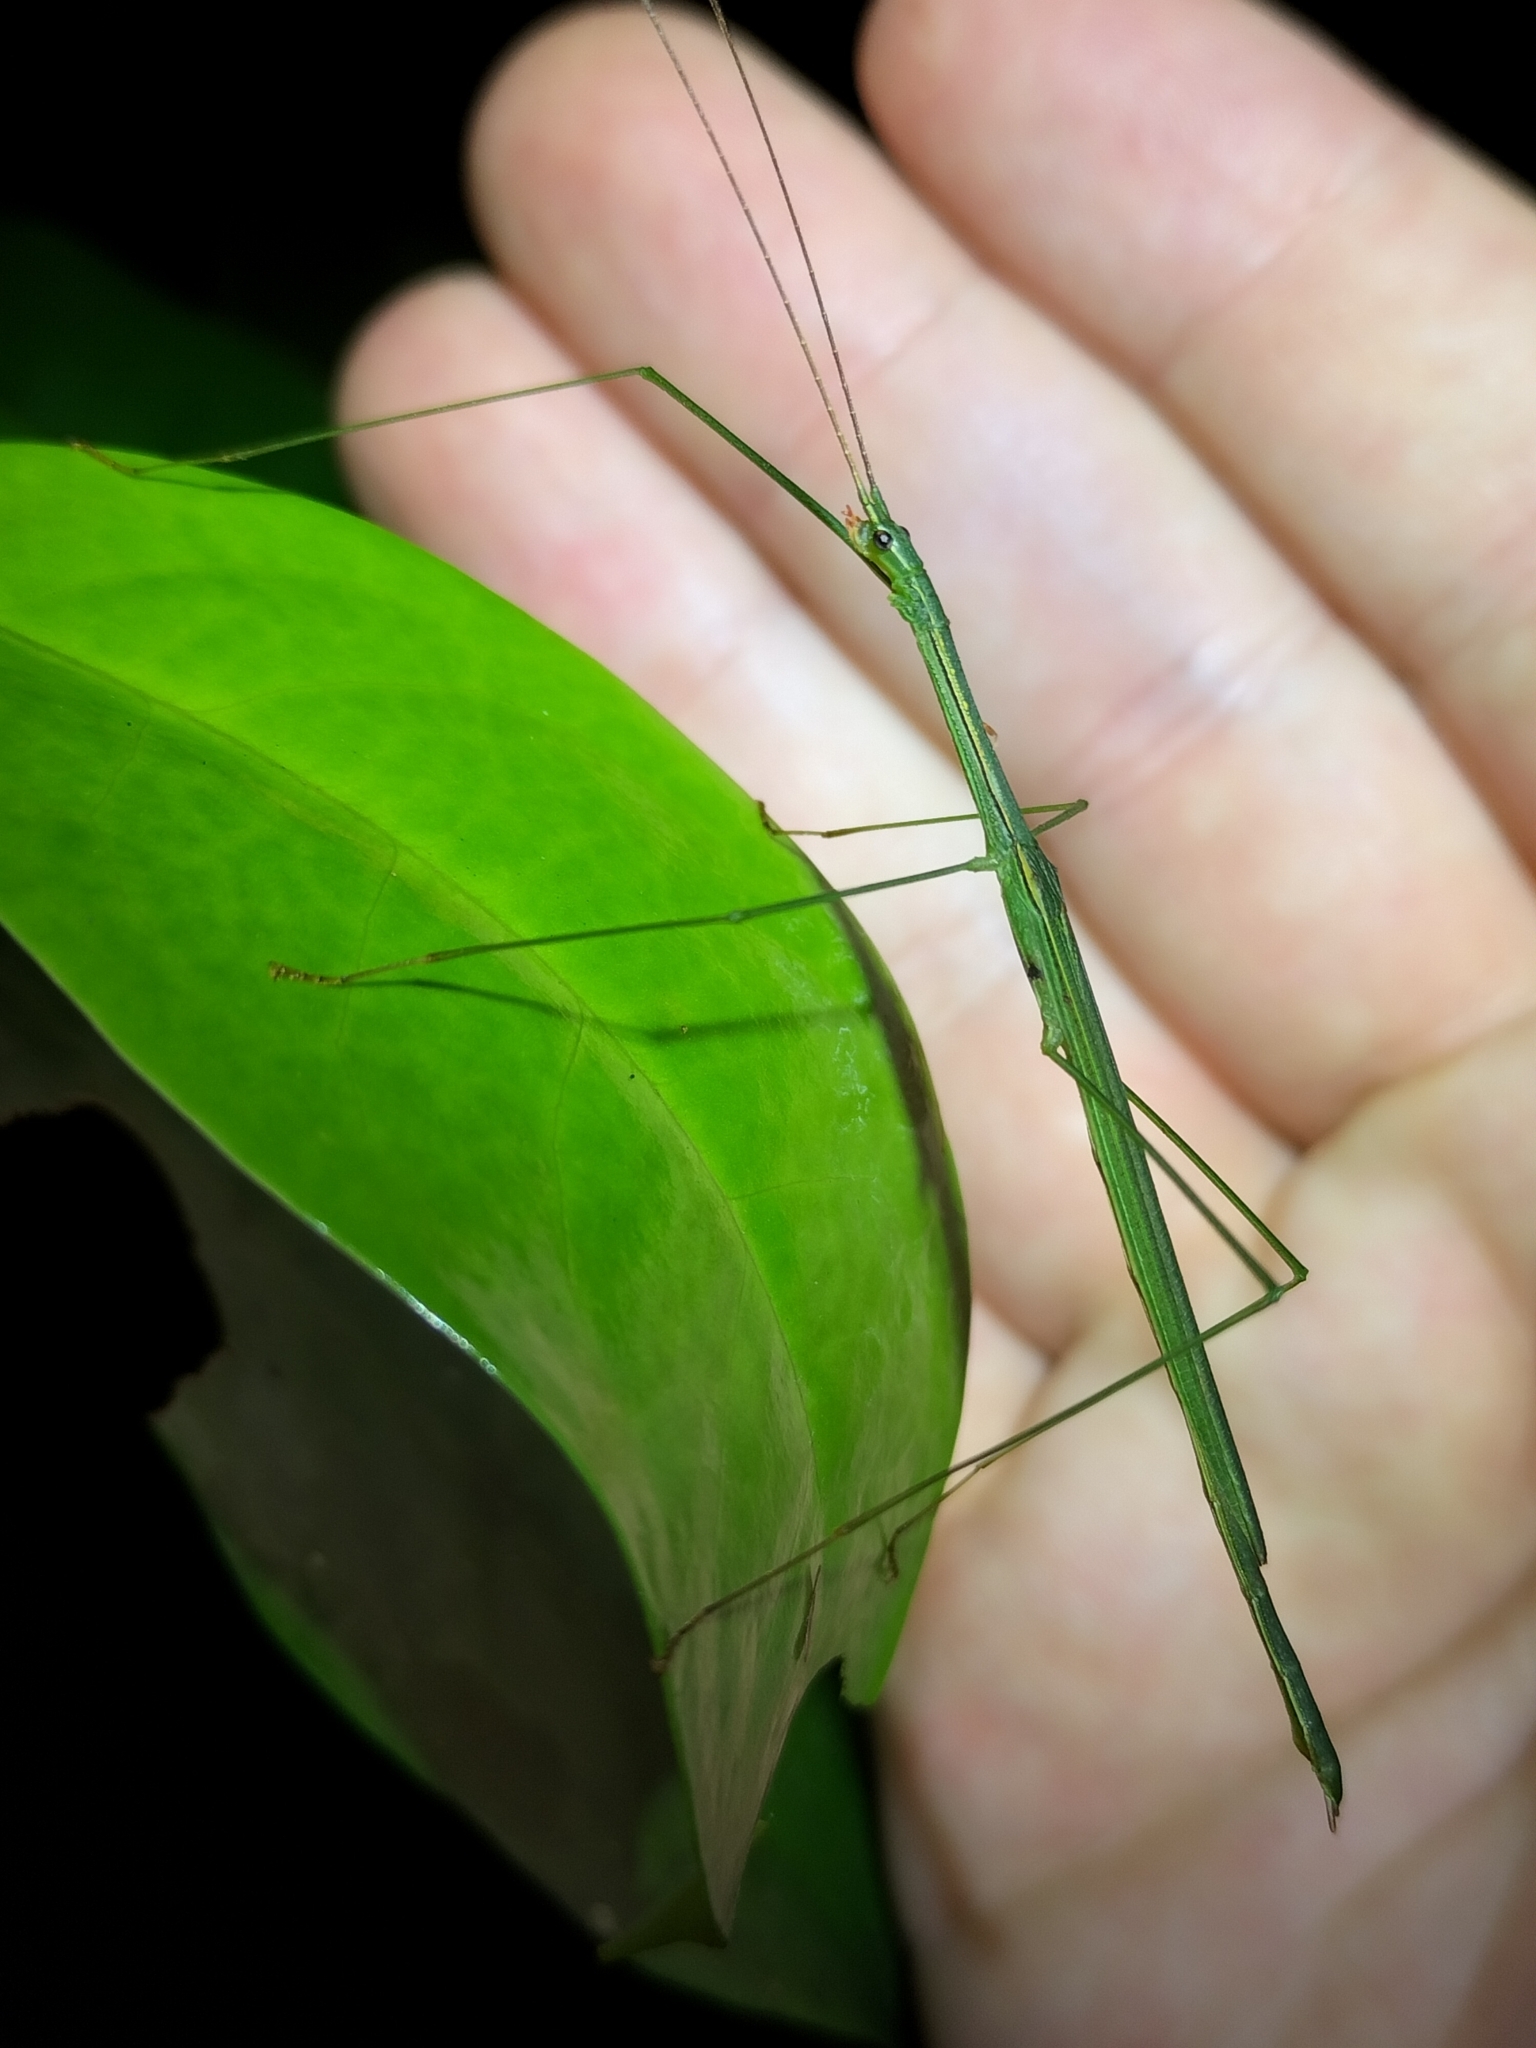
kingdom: Animalia
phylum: Arthropoda
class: Insecta
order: Phasmida
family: Lonchodidae
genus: Sipyloidea
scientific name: Sipyloidea rentzi
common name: Rentz's sipyloidea stick-insect
